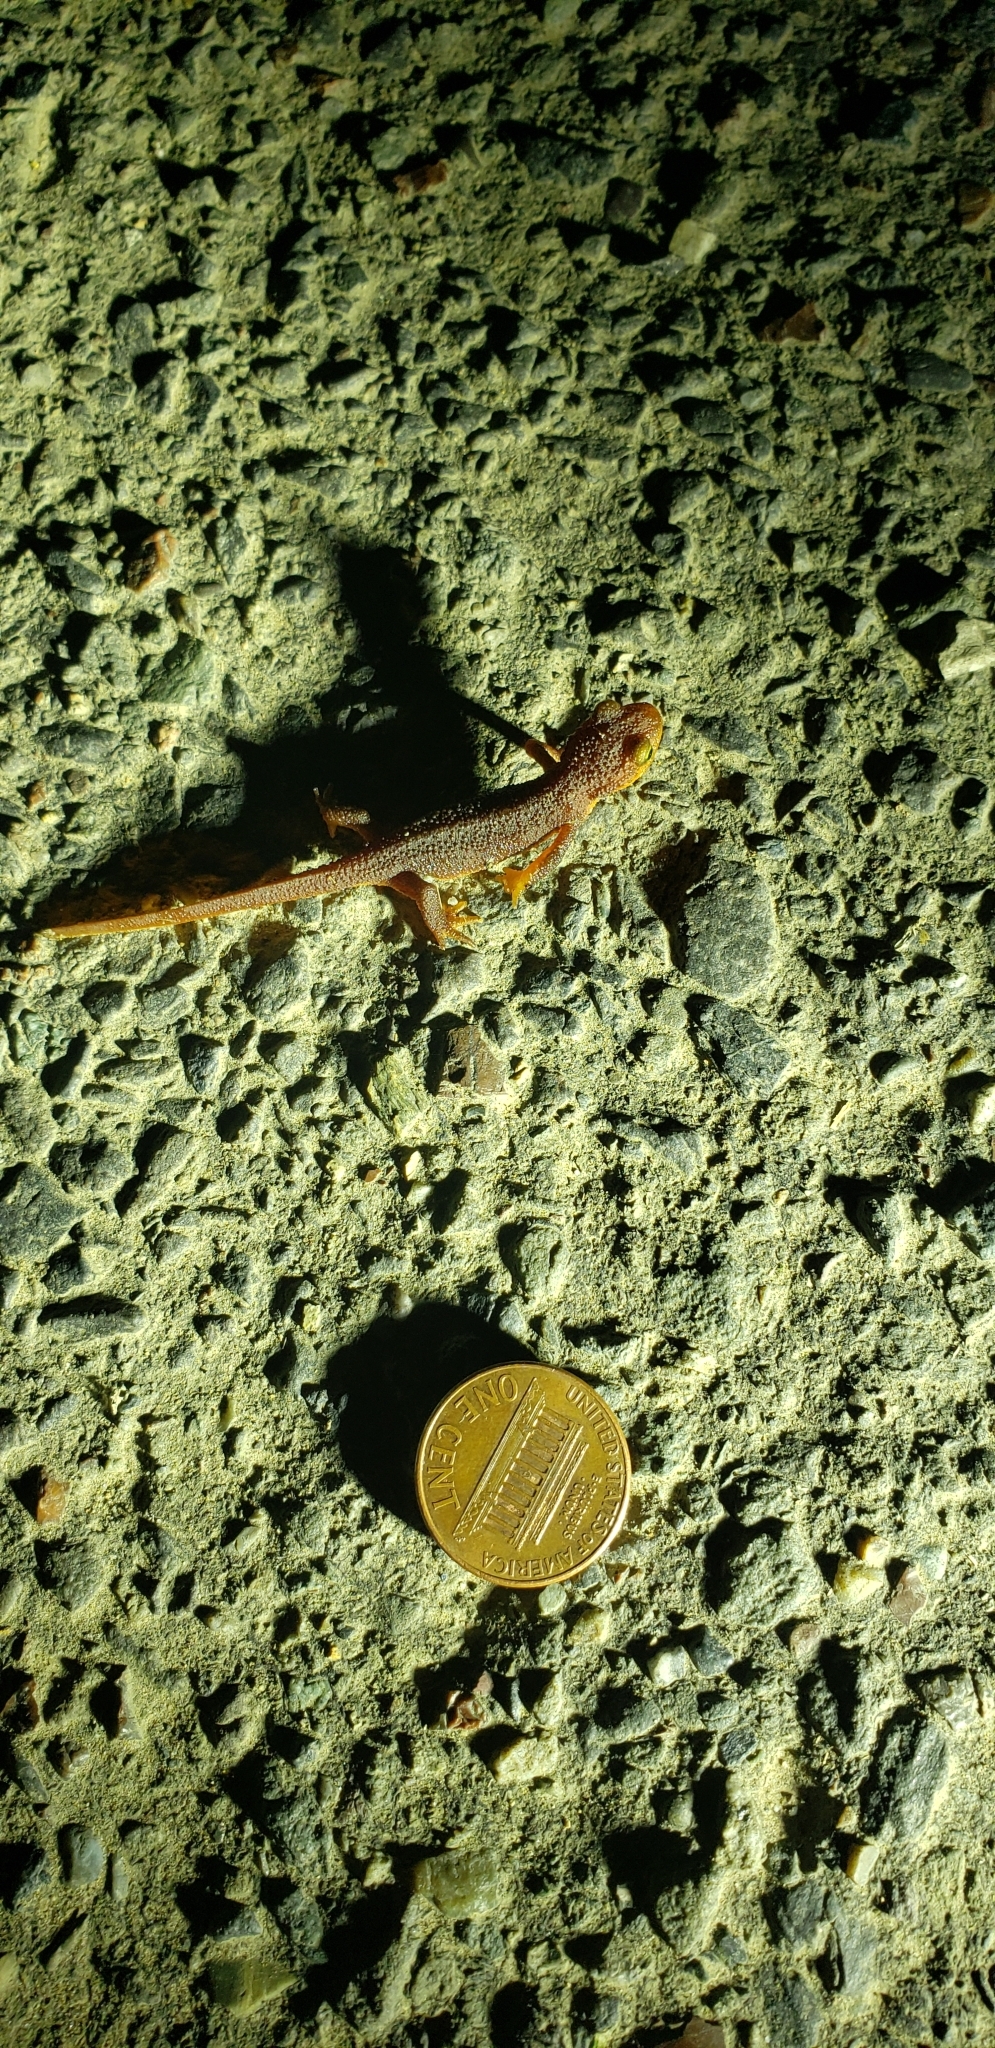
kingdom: Animalia
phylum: Chordata
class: Amphibia
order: Caudata
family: Salamandridae
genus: Taricha
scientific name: Taricha torosa
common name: California newt
